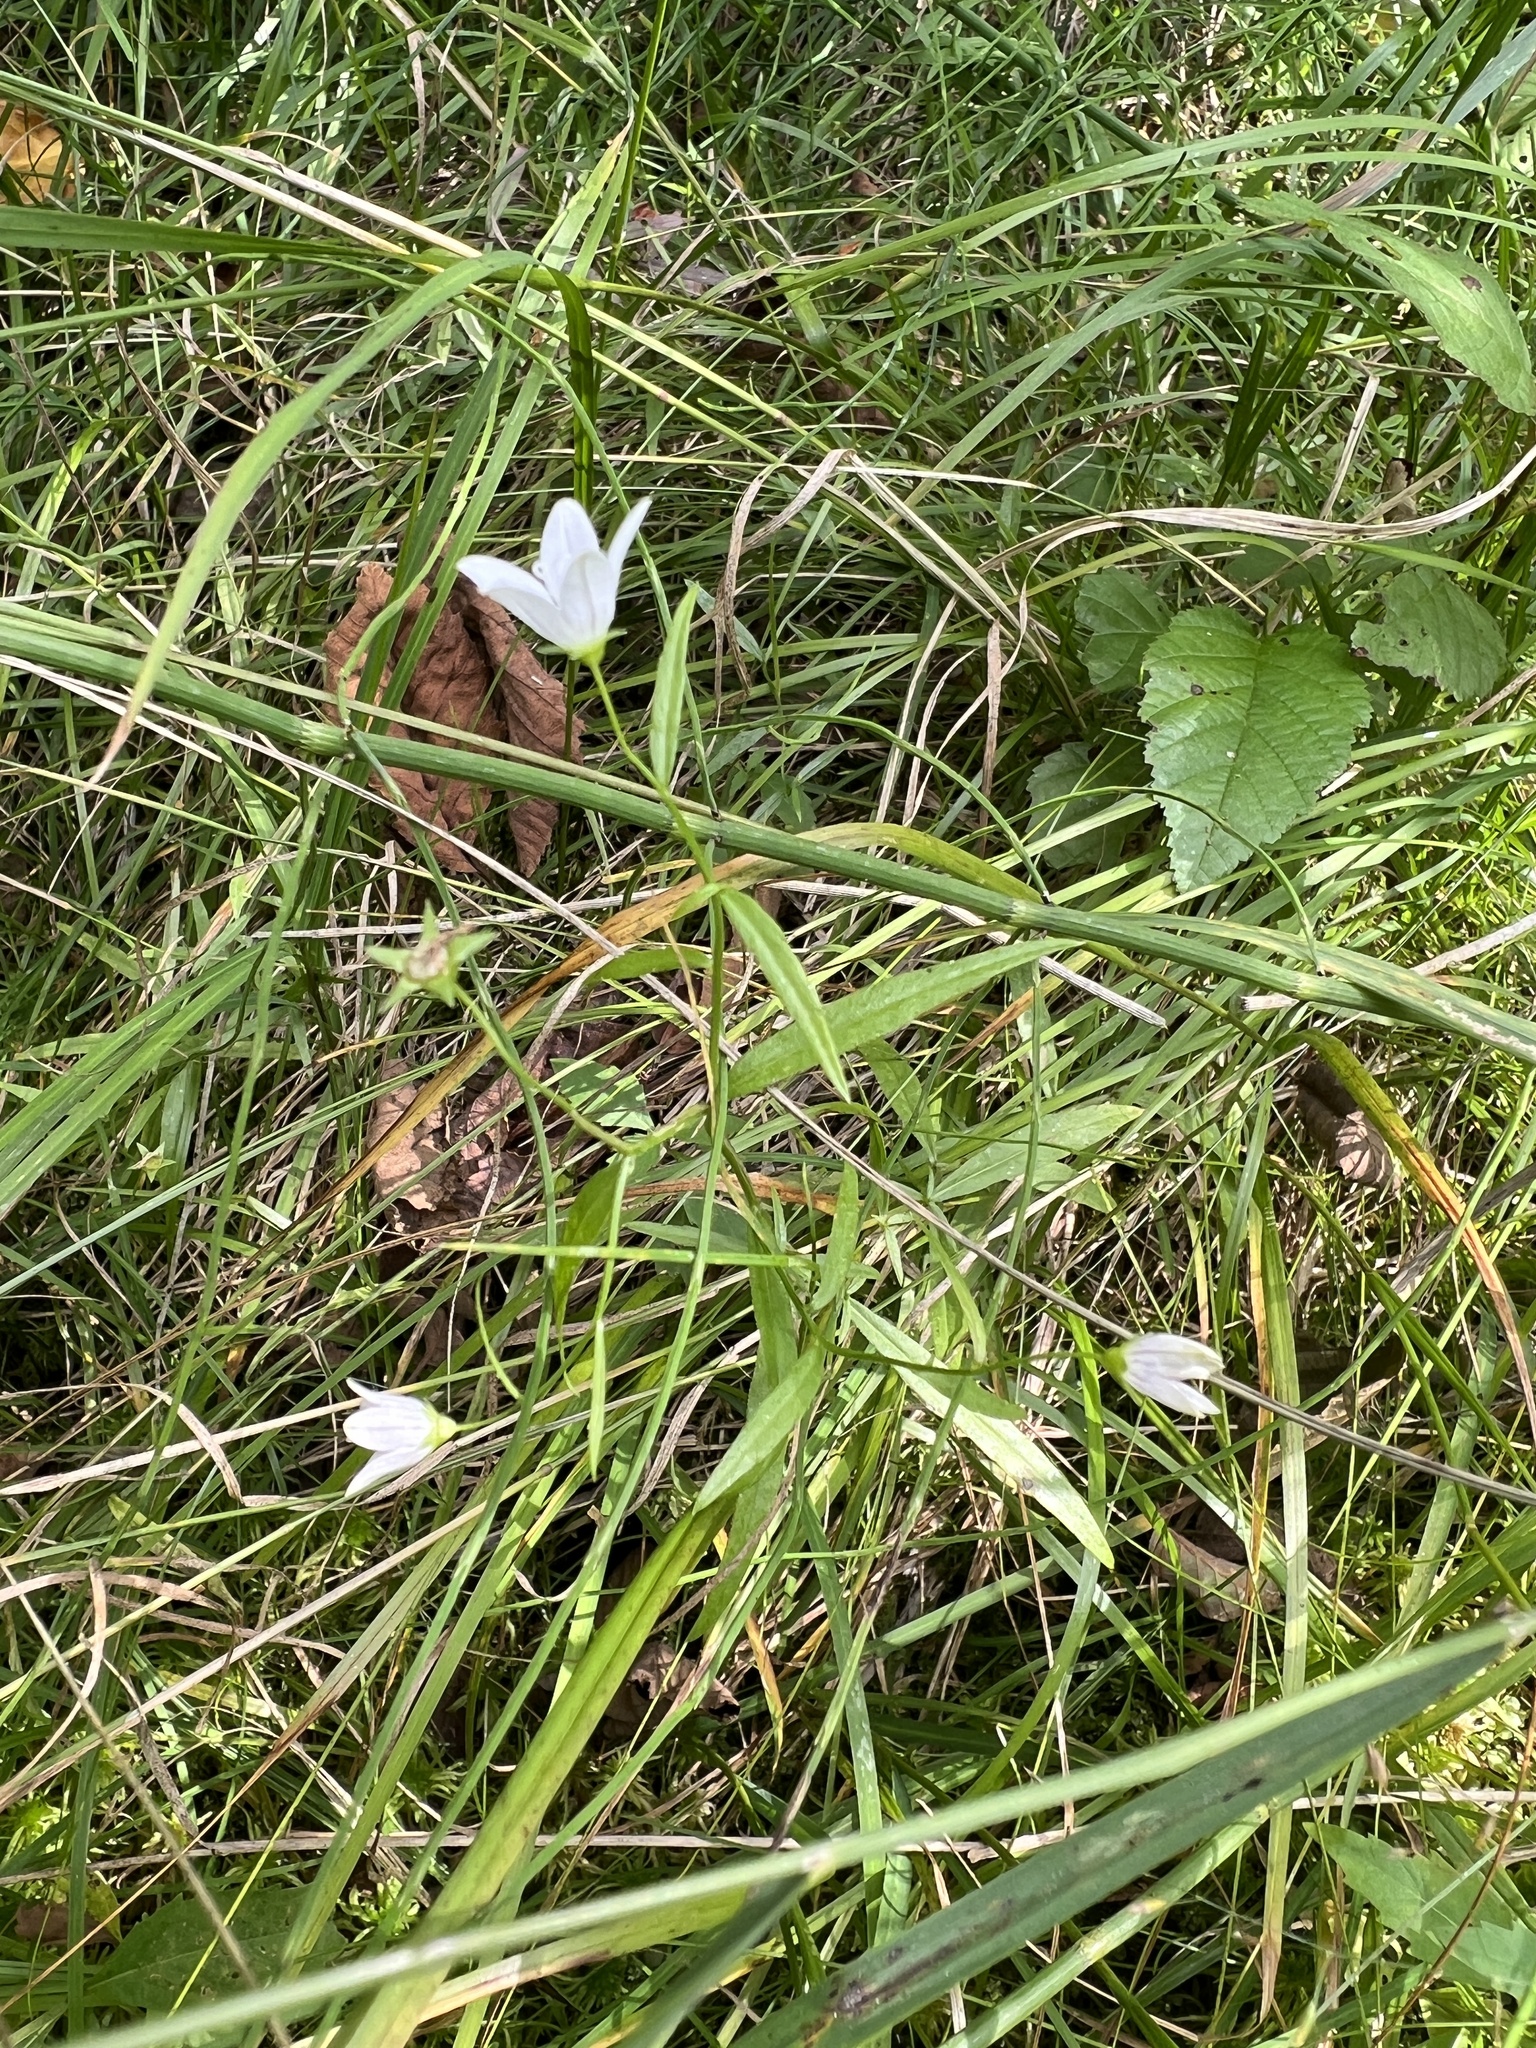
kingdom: Plantae
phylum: Tracheophyta
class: Magnoliopsida
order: Asterales
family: Campanulaceae
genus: Palustricodon
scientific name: Palustricodon aparinoides
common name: Bedstraw bellflower
